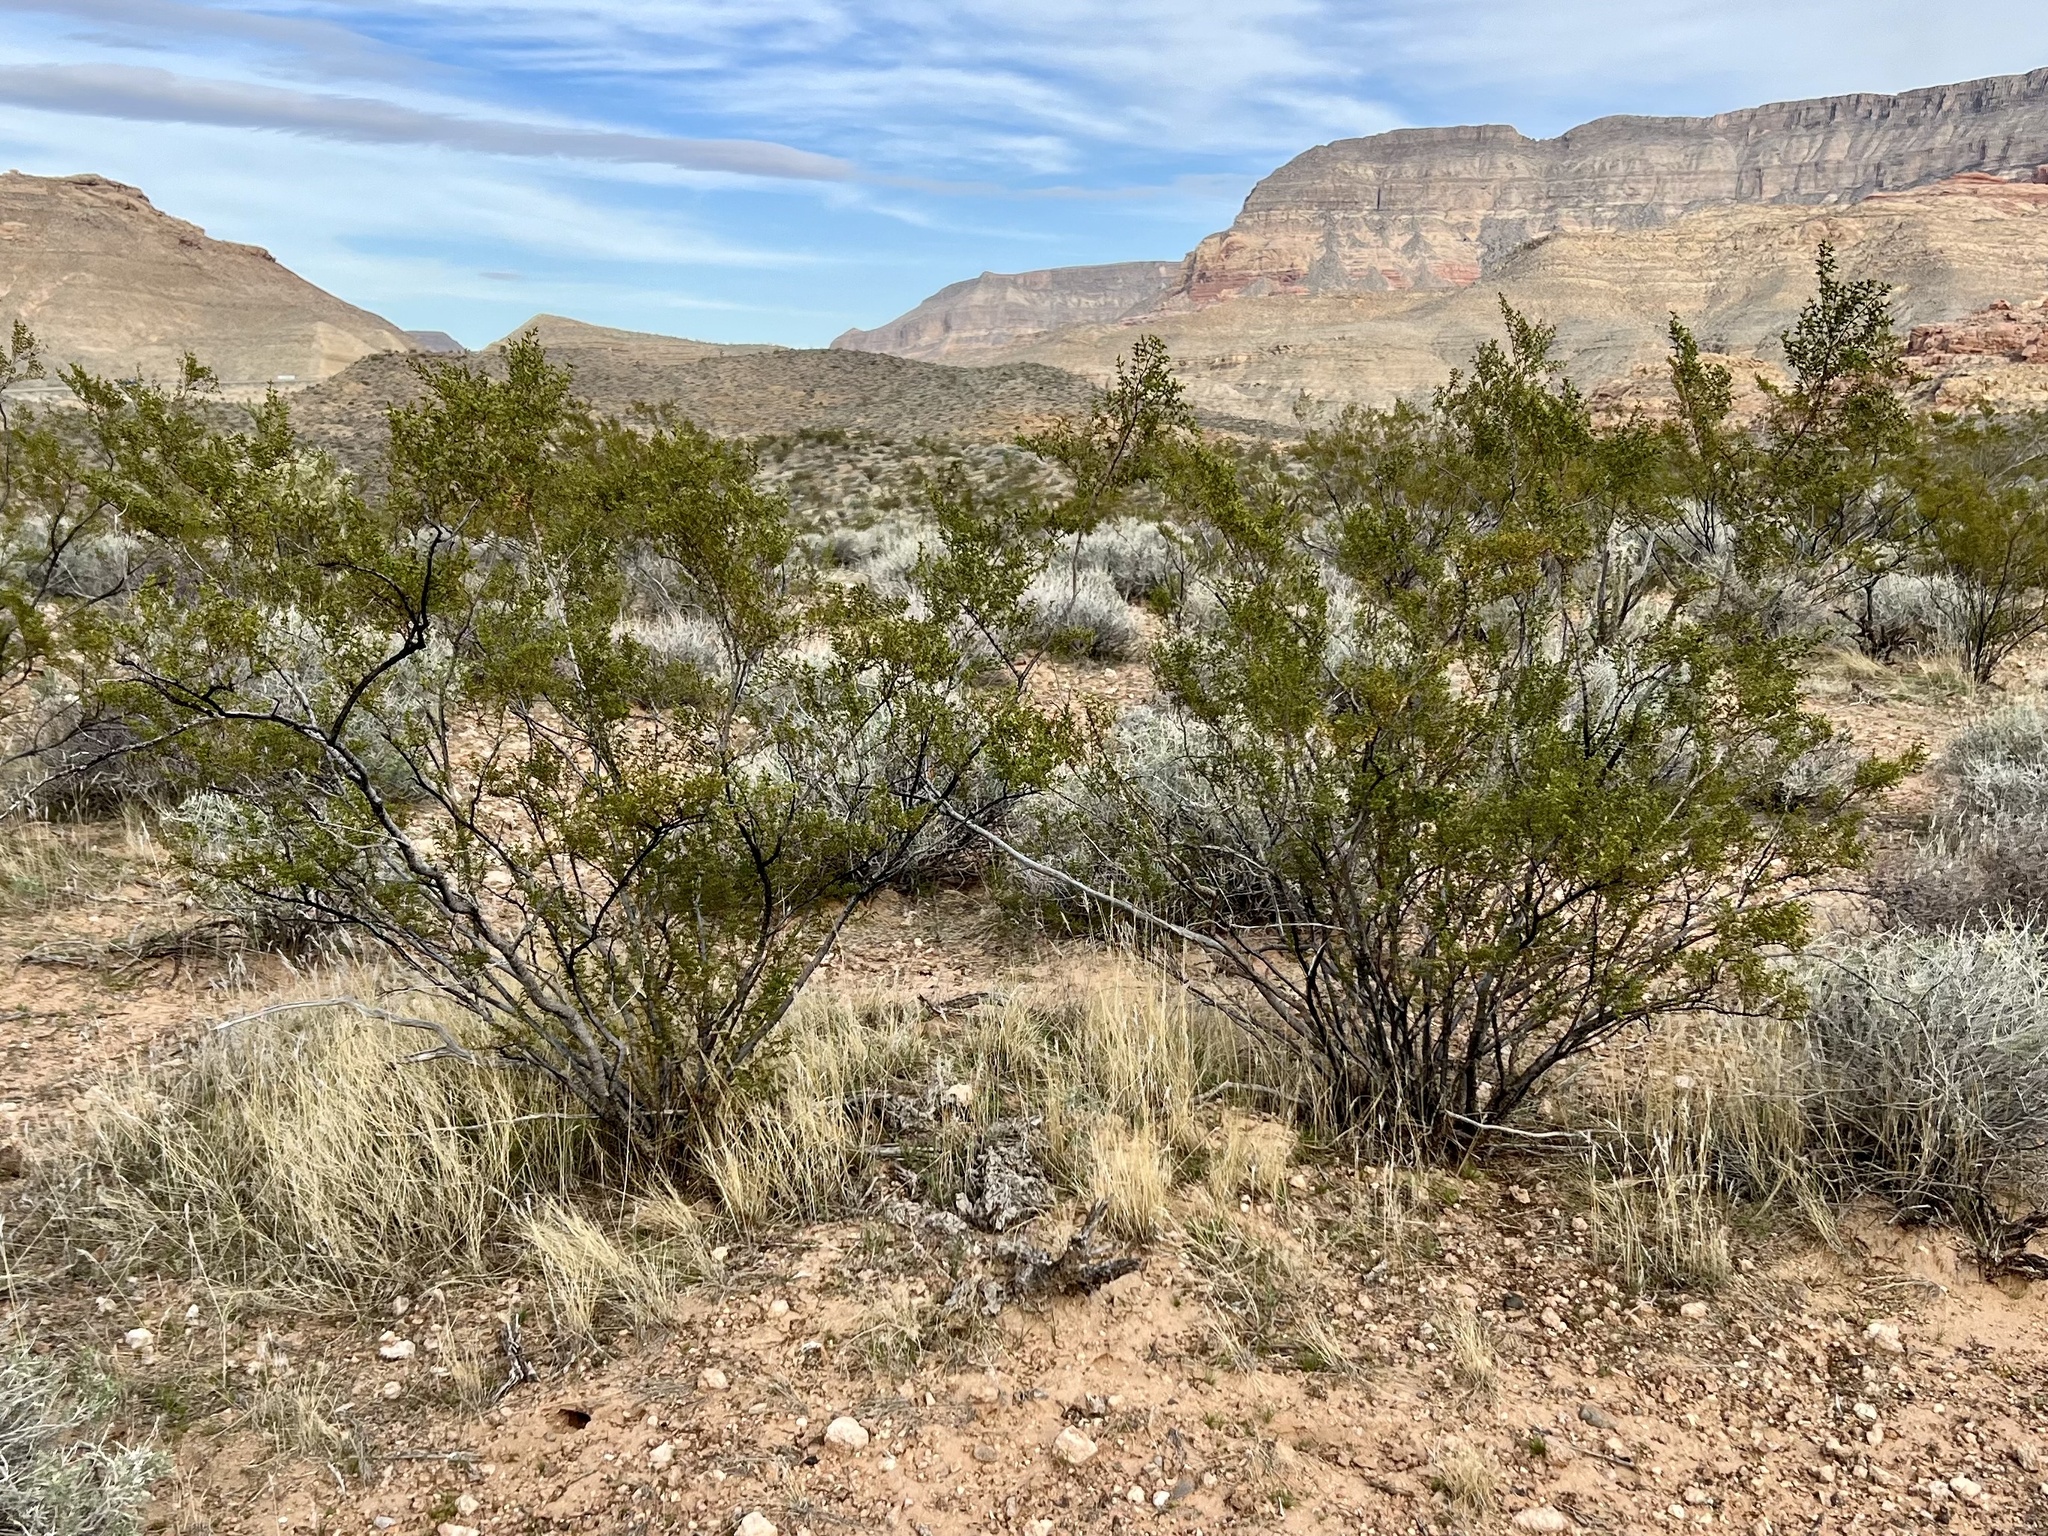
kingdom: Plantae
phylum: Tracheophyta
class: Magnoliopsida
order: Zygophyllales
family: Zygophyllaceae
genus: Larrea
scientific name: Larrea tridentata
